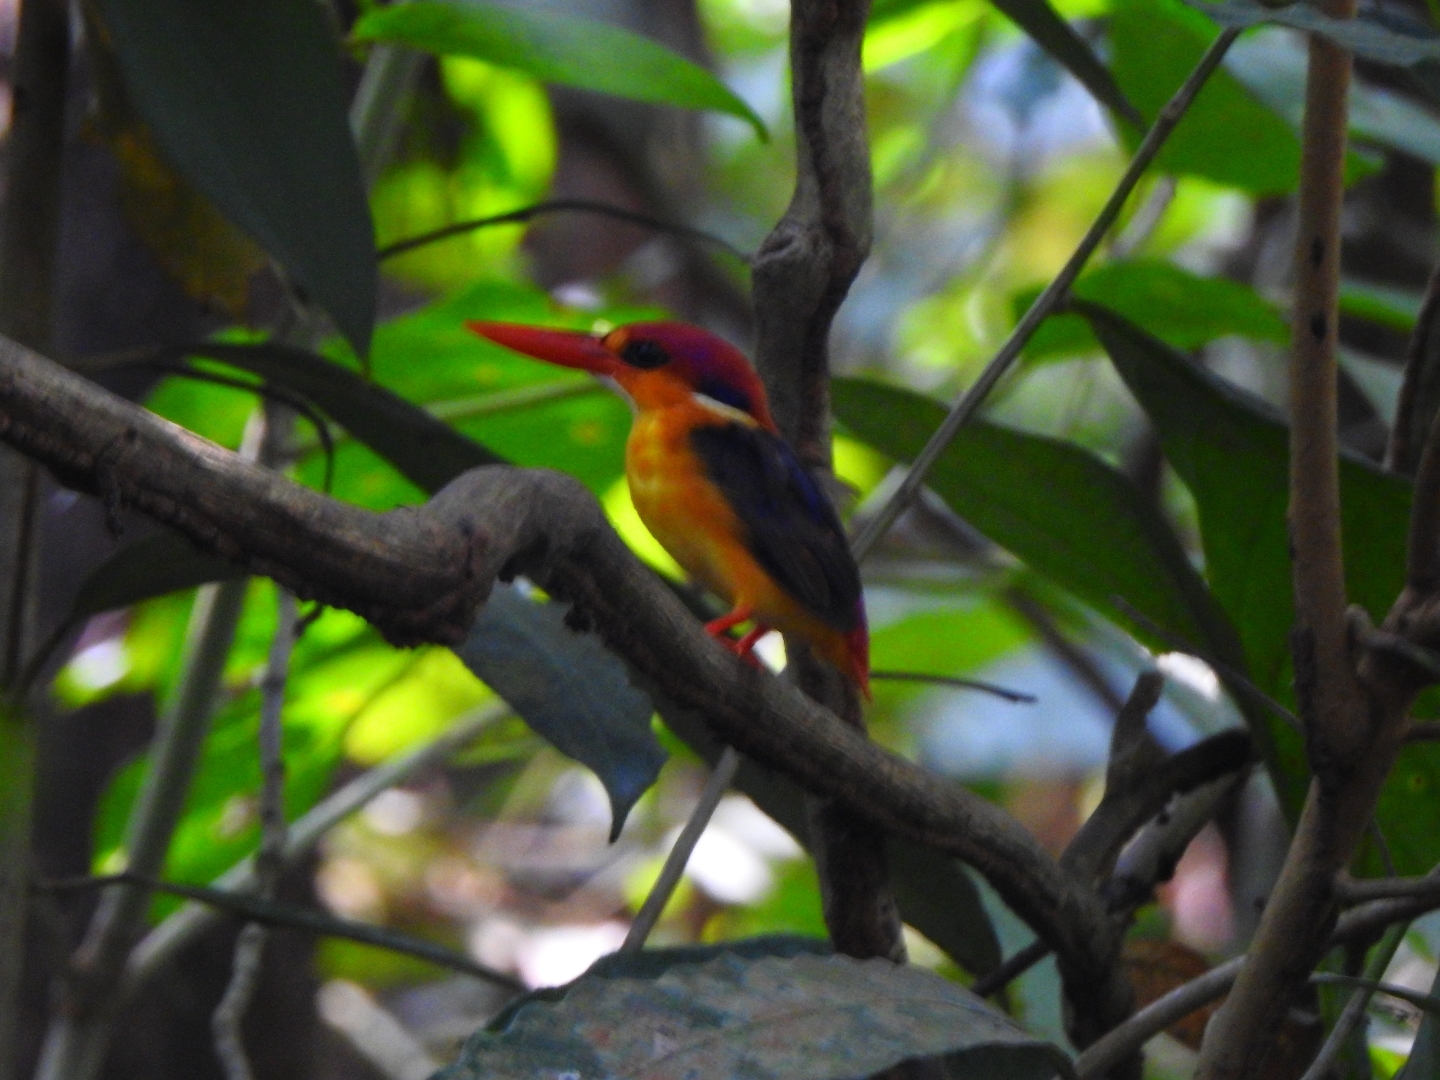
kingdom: Animalia
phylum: Chordata
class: Aves
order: Coraciiformes
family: Alcedinidae
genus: Ceyx
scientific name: Ceyx erithaca
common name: Oriental dwarf kingfisher
